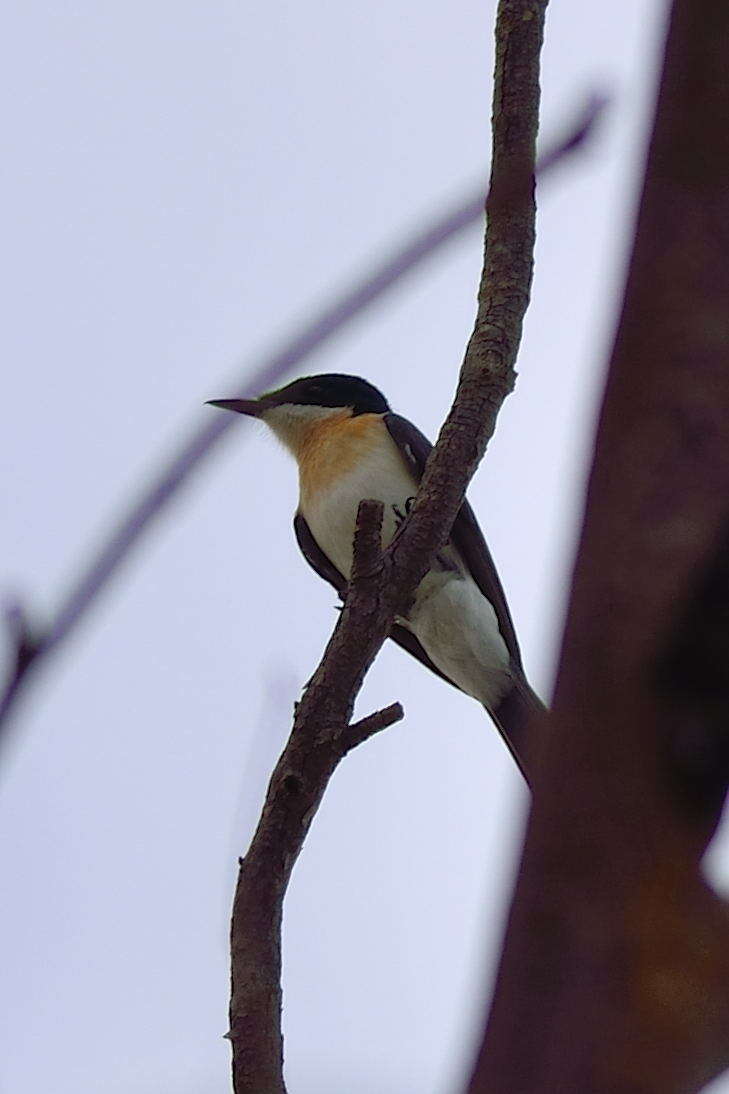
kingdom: Animalia
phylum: Chordata
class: Aves
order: Passeriformes
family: Monarchidae
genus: Myiagra
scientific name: Myiagra inquieta
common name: Restless flycatcher
